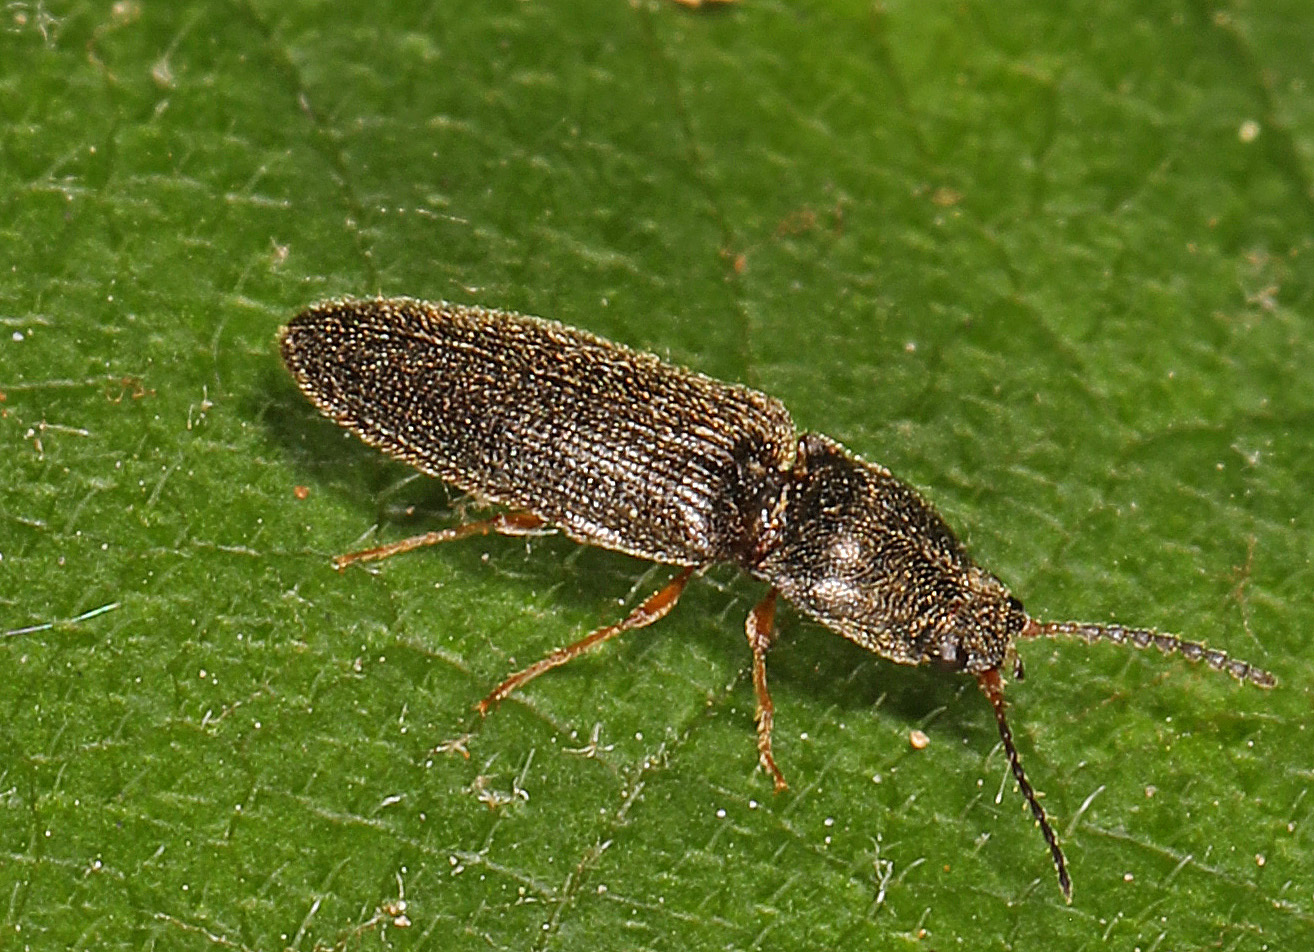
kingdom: Animalia
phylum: Arthropoda
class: Insecta
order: Coleoptera
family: Elateridae
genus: Limonius
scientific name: Limonius quercinus
